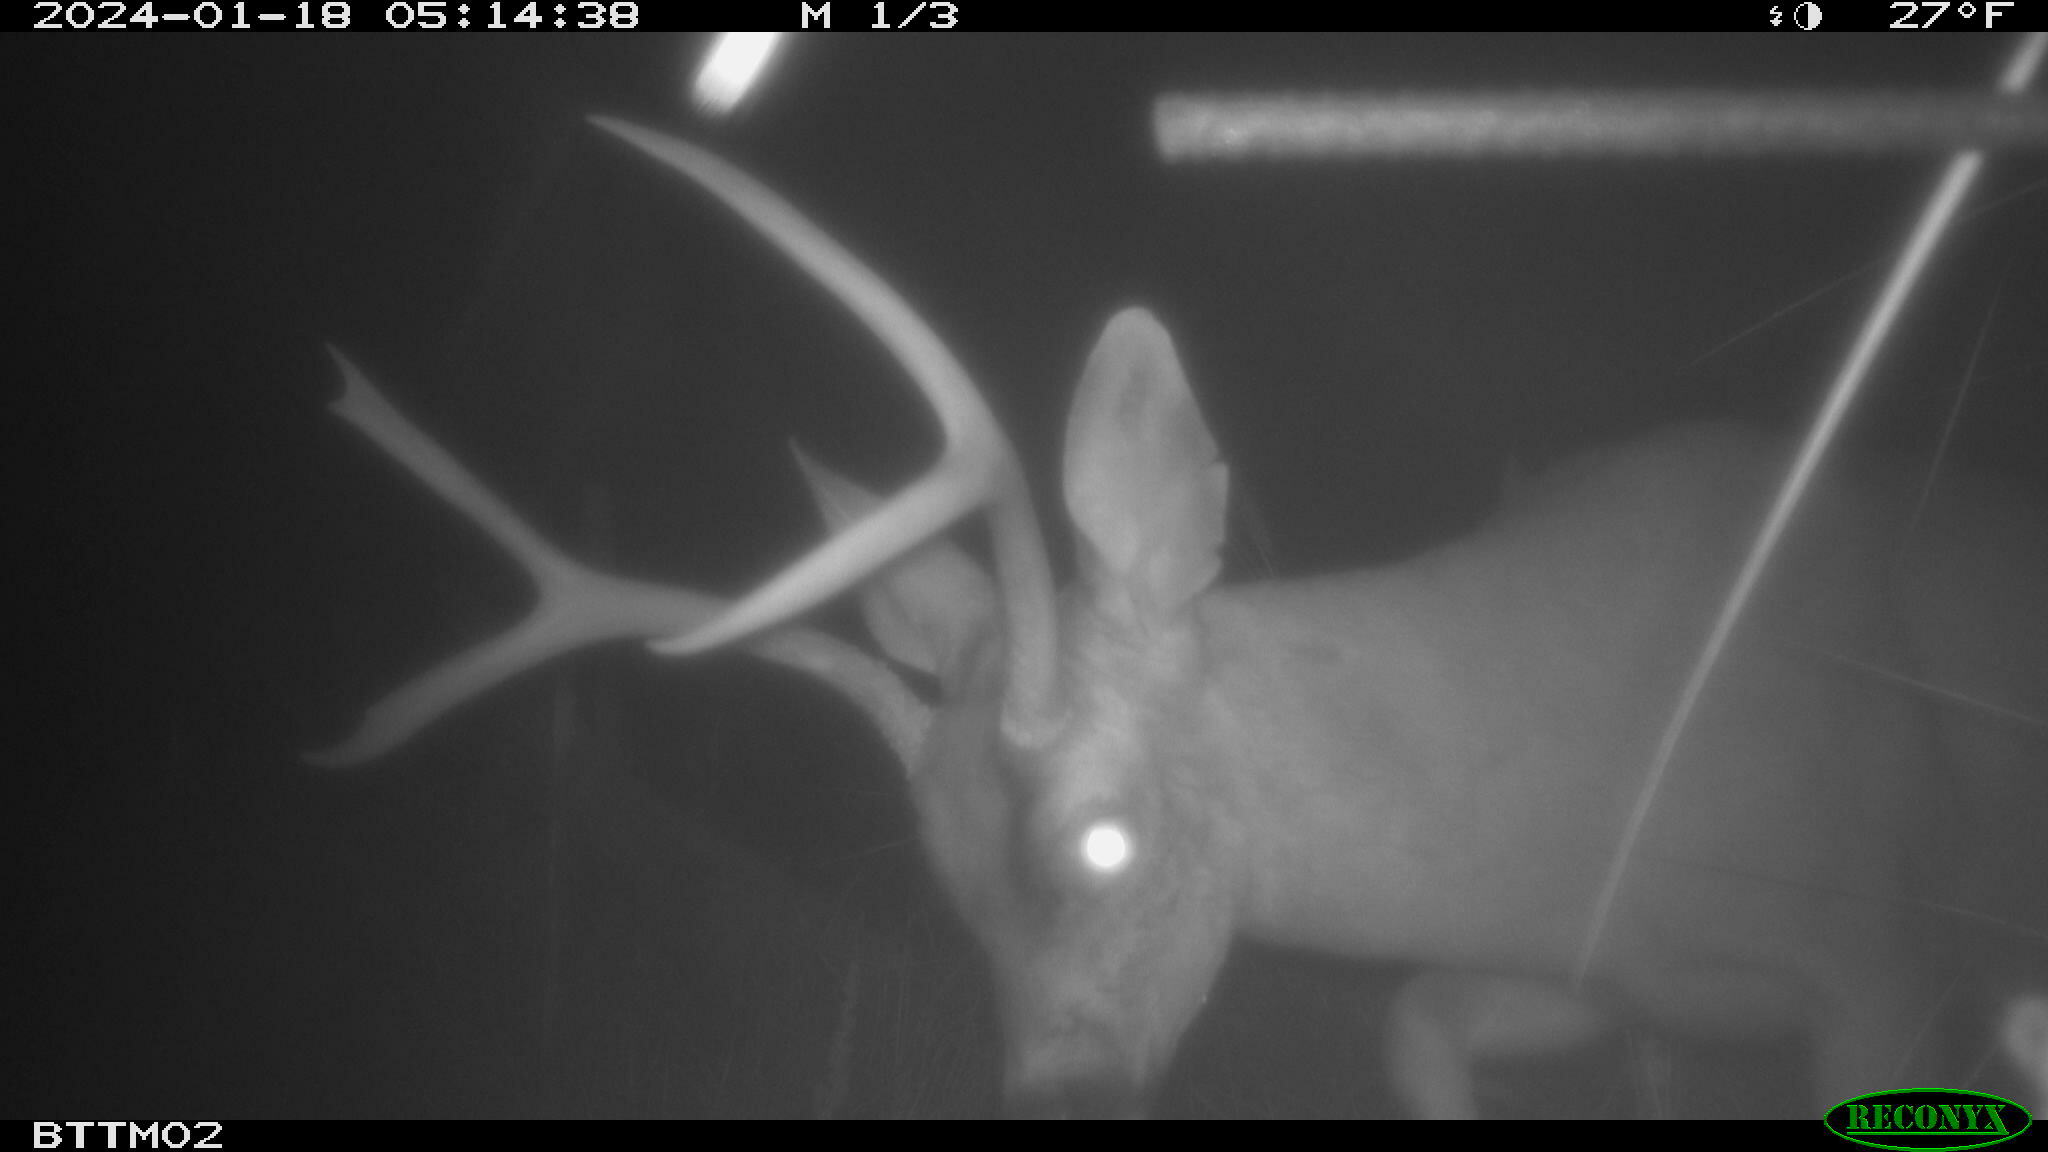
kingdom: Animalia
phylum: Chordata
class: Mammalia
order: Artiodactyla
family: Cervidae
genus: Odocoileus
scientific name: Odocoileus hemionus
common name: Mule deer
